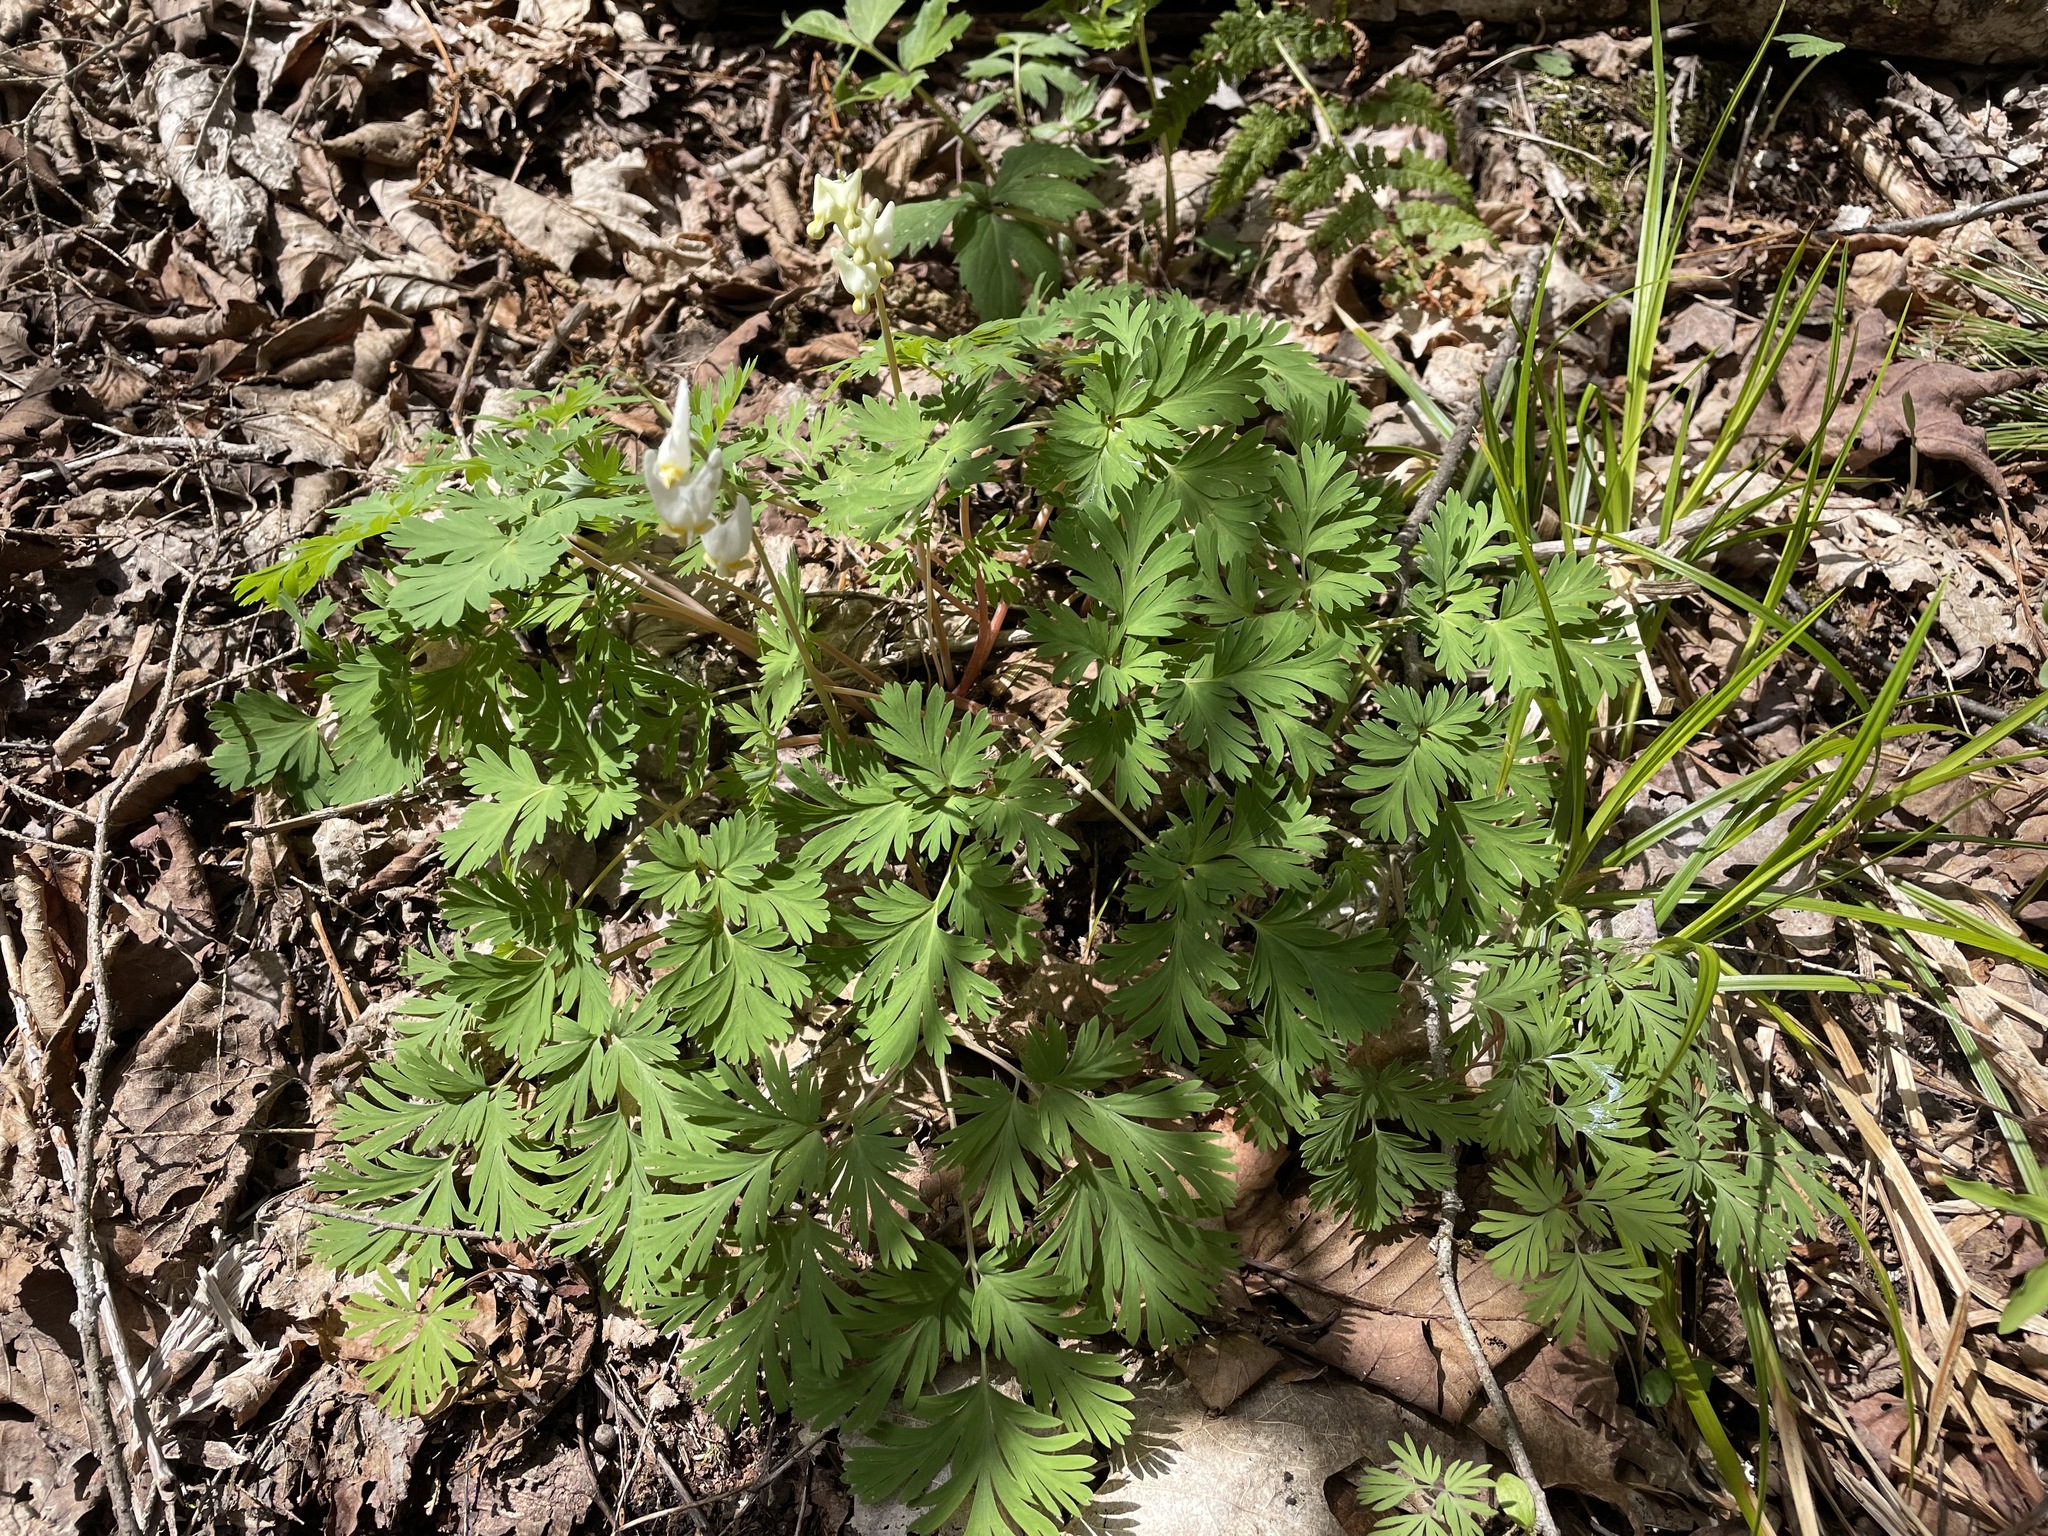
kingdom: Plantae
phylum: Tracheophyta
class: Magnoliopsida
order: Ranunculales
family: Papaveraceae
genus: Dicentra
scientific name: Dicentra cucullaria
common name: Dutchman's breeches
